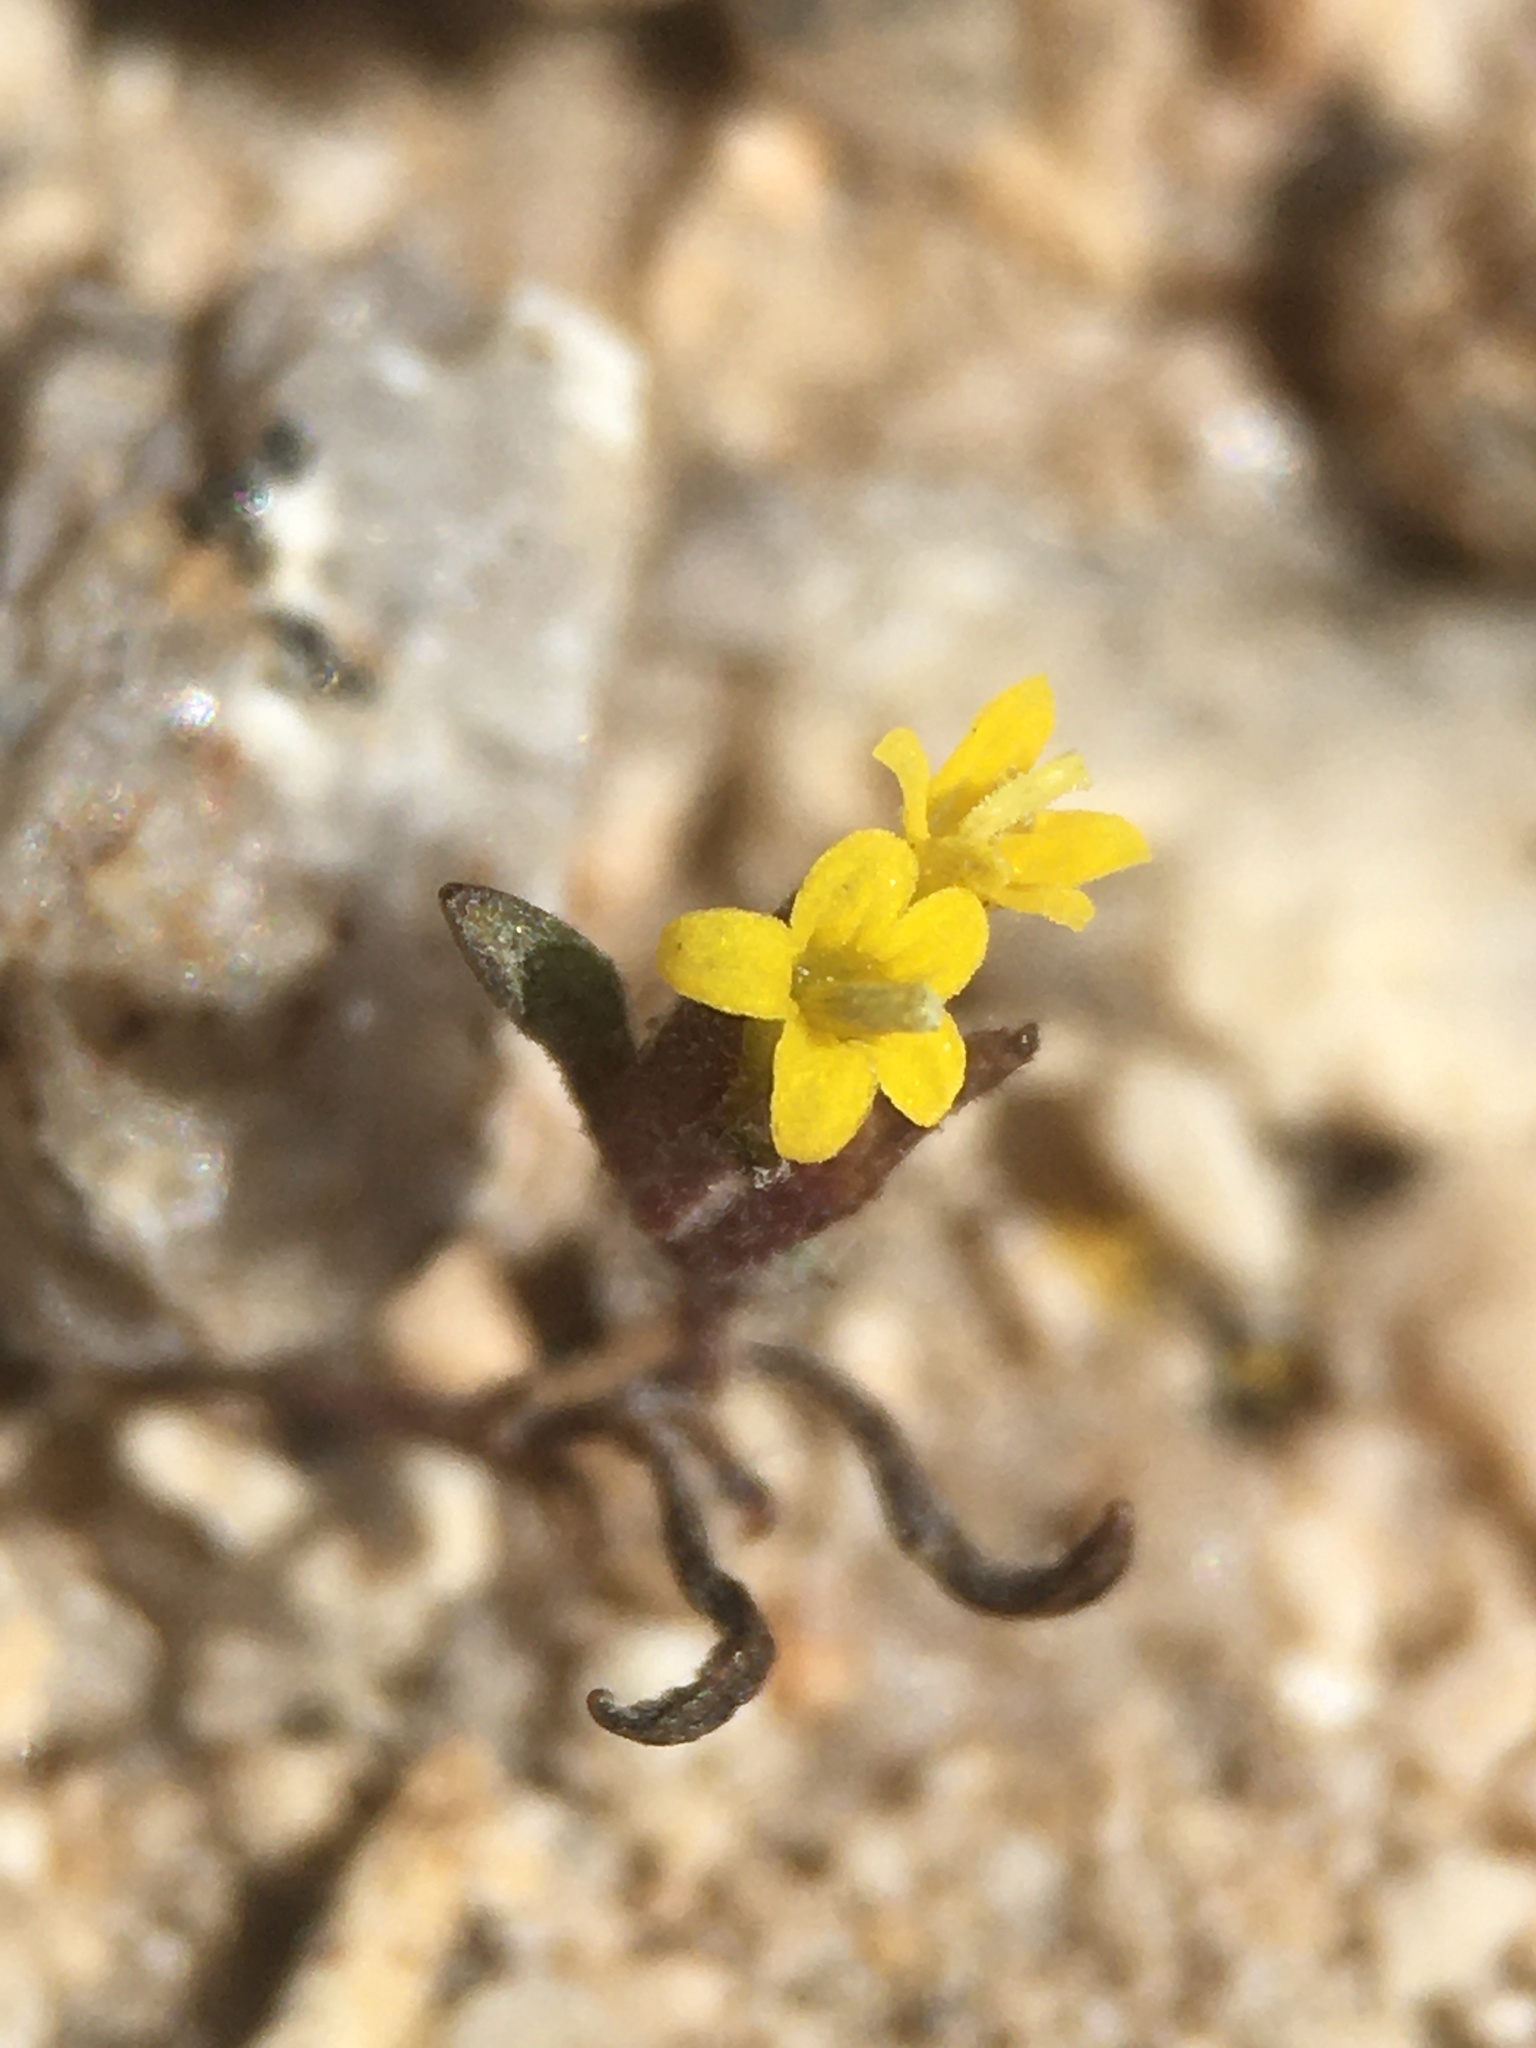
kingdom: Plantae
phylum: Tracheophyta
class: Magnoliopsida
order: Asterales
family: Asteraceae
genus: Orochaenactis
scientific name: Orochaenactis thysanocarpha
